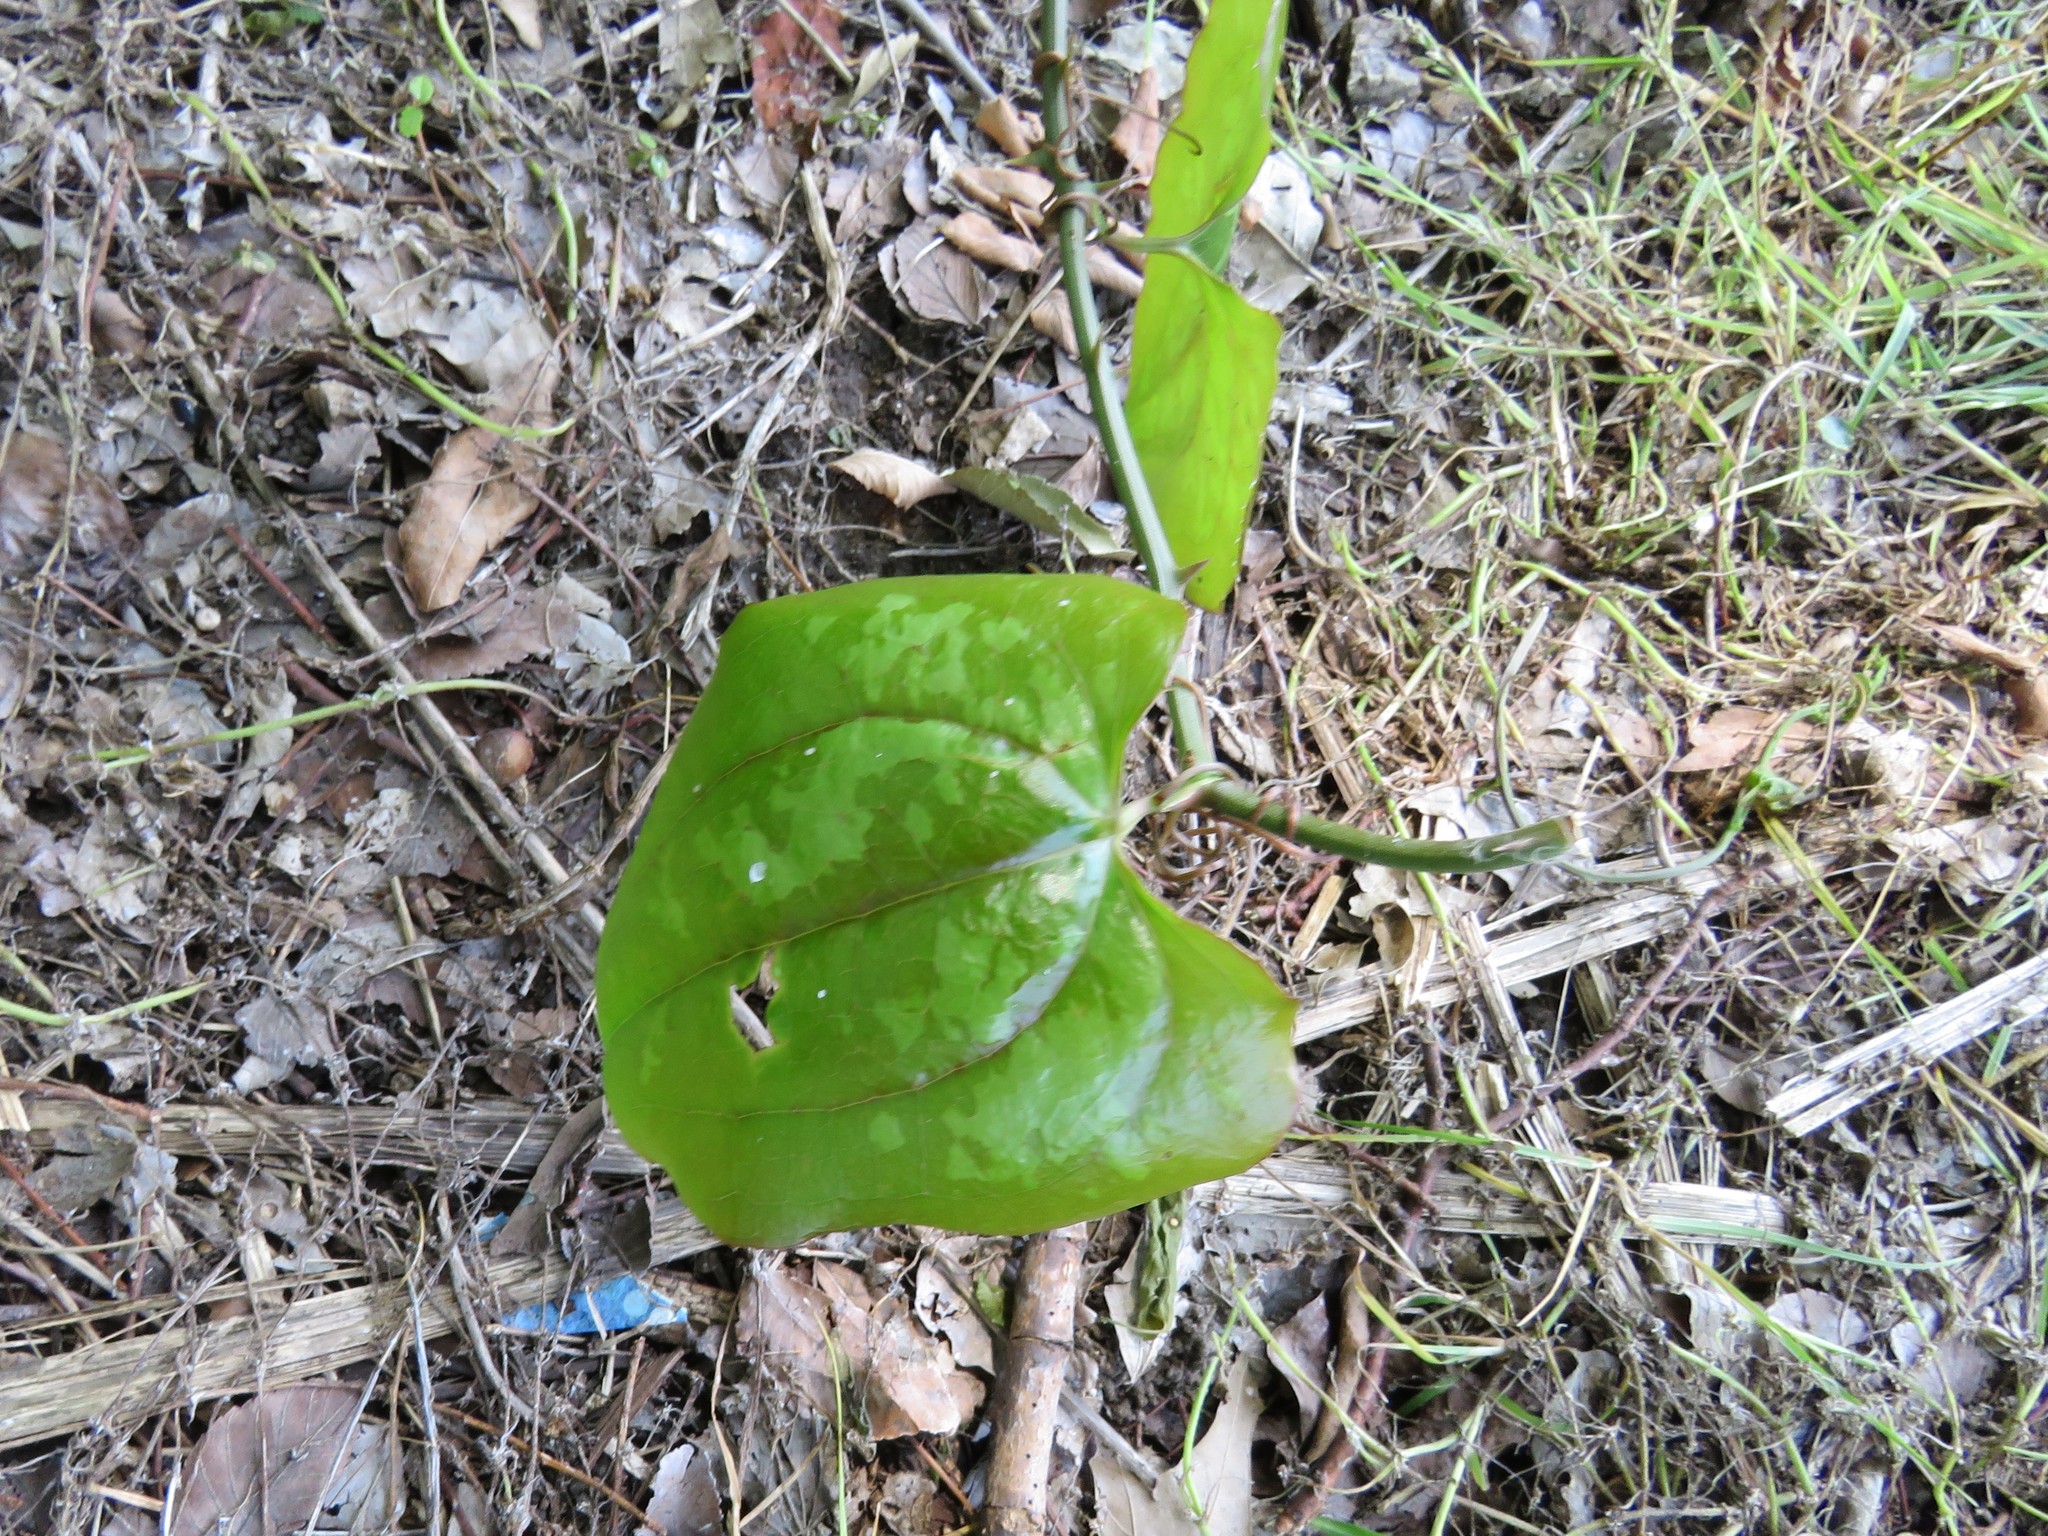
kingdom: Plantae
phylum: Tracheophyta
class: Liliopsida
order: Liliales
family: Smilacaceae
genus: Smilax
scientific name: Smilax bona-nox
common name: Catbrier
